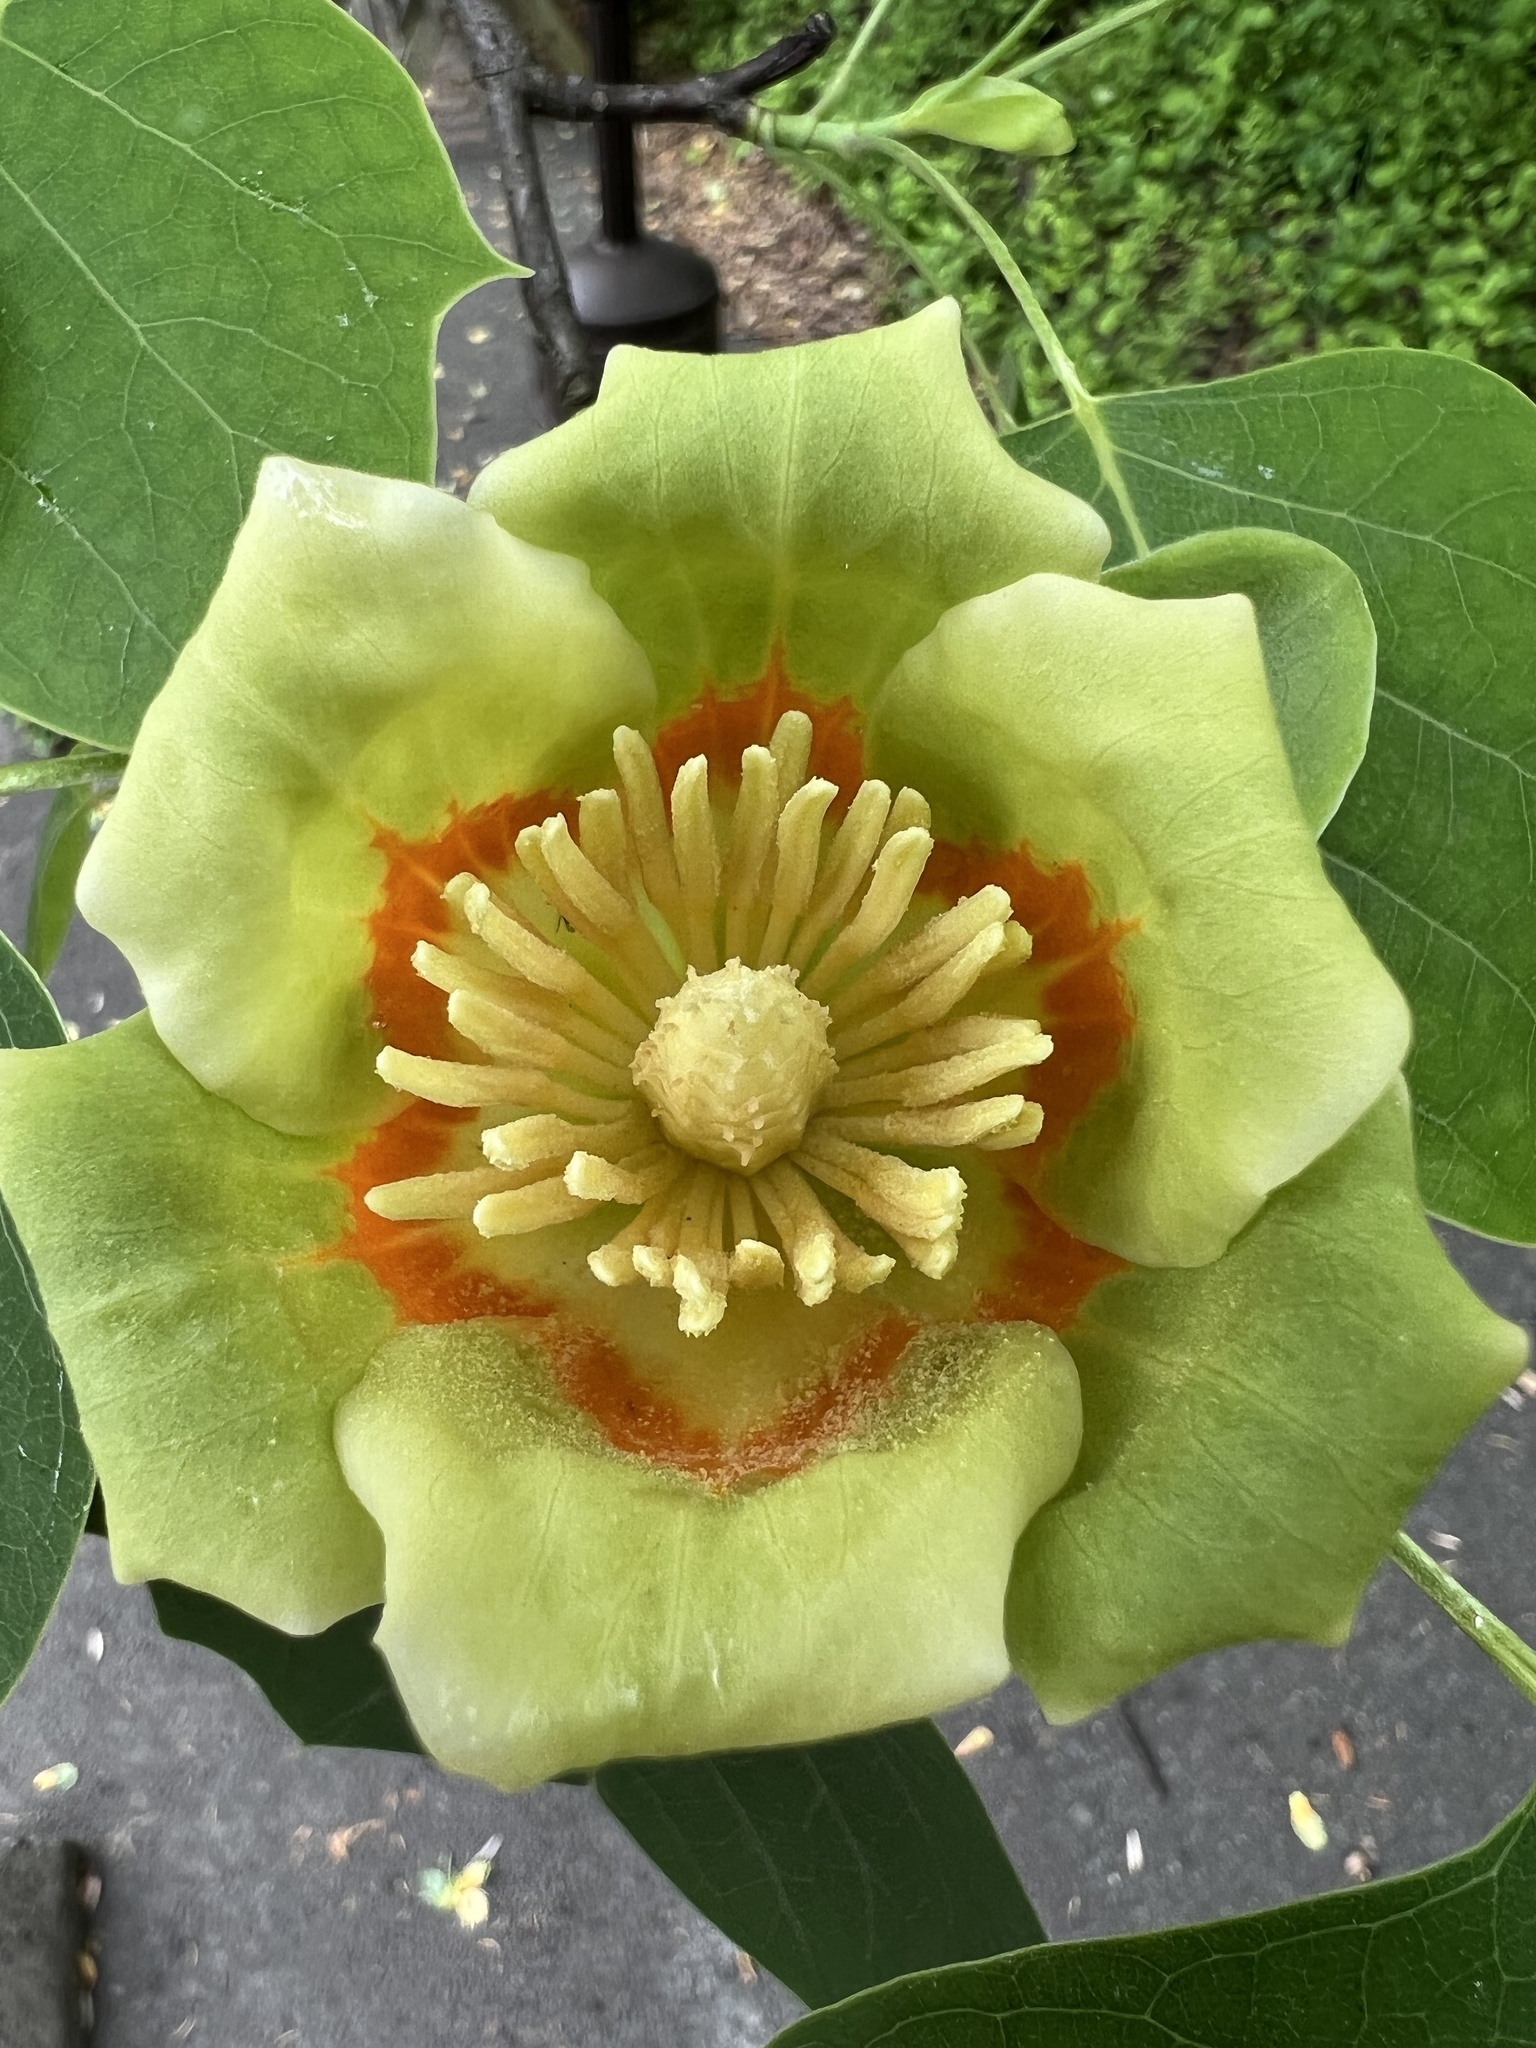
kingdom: Plantae
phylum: Tracheophyta
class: Magnoliopsida
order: Magnoliales
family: Magnoliaceae
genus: Liriodendron
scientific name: Liriodendron tulipifera
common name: Tulip tree
